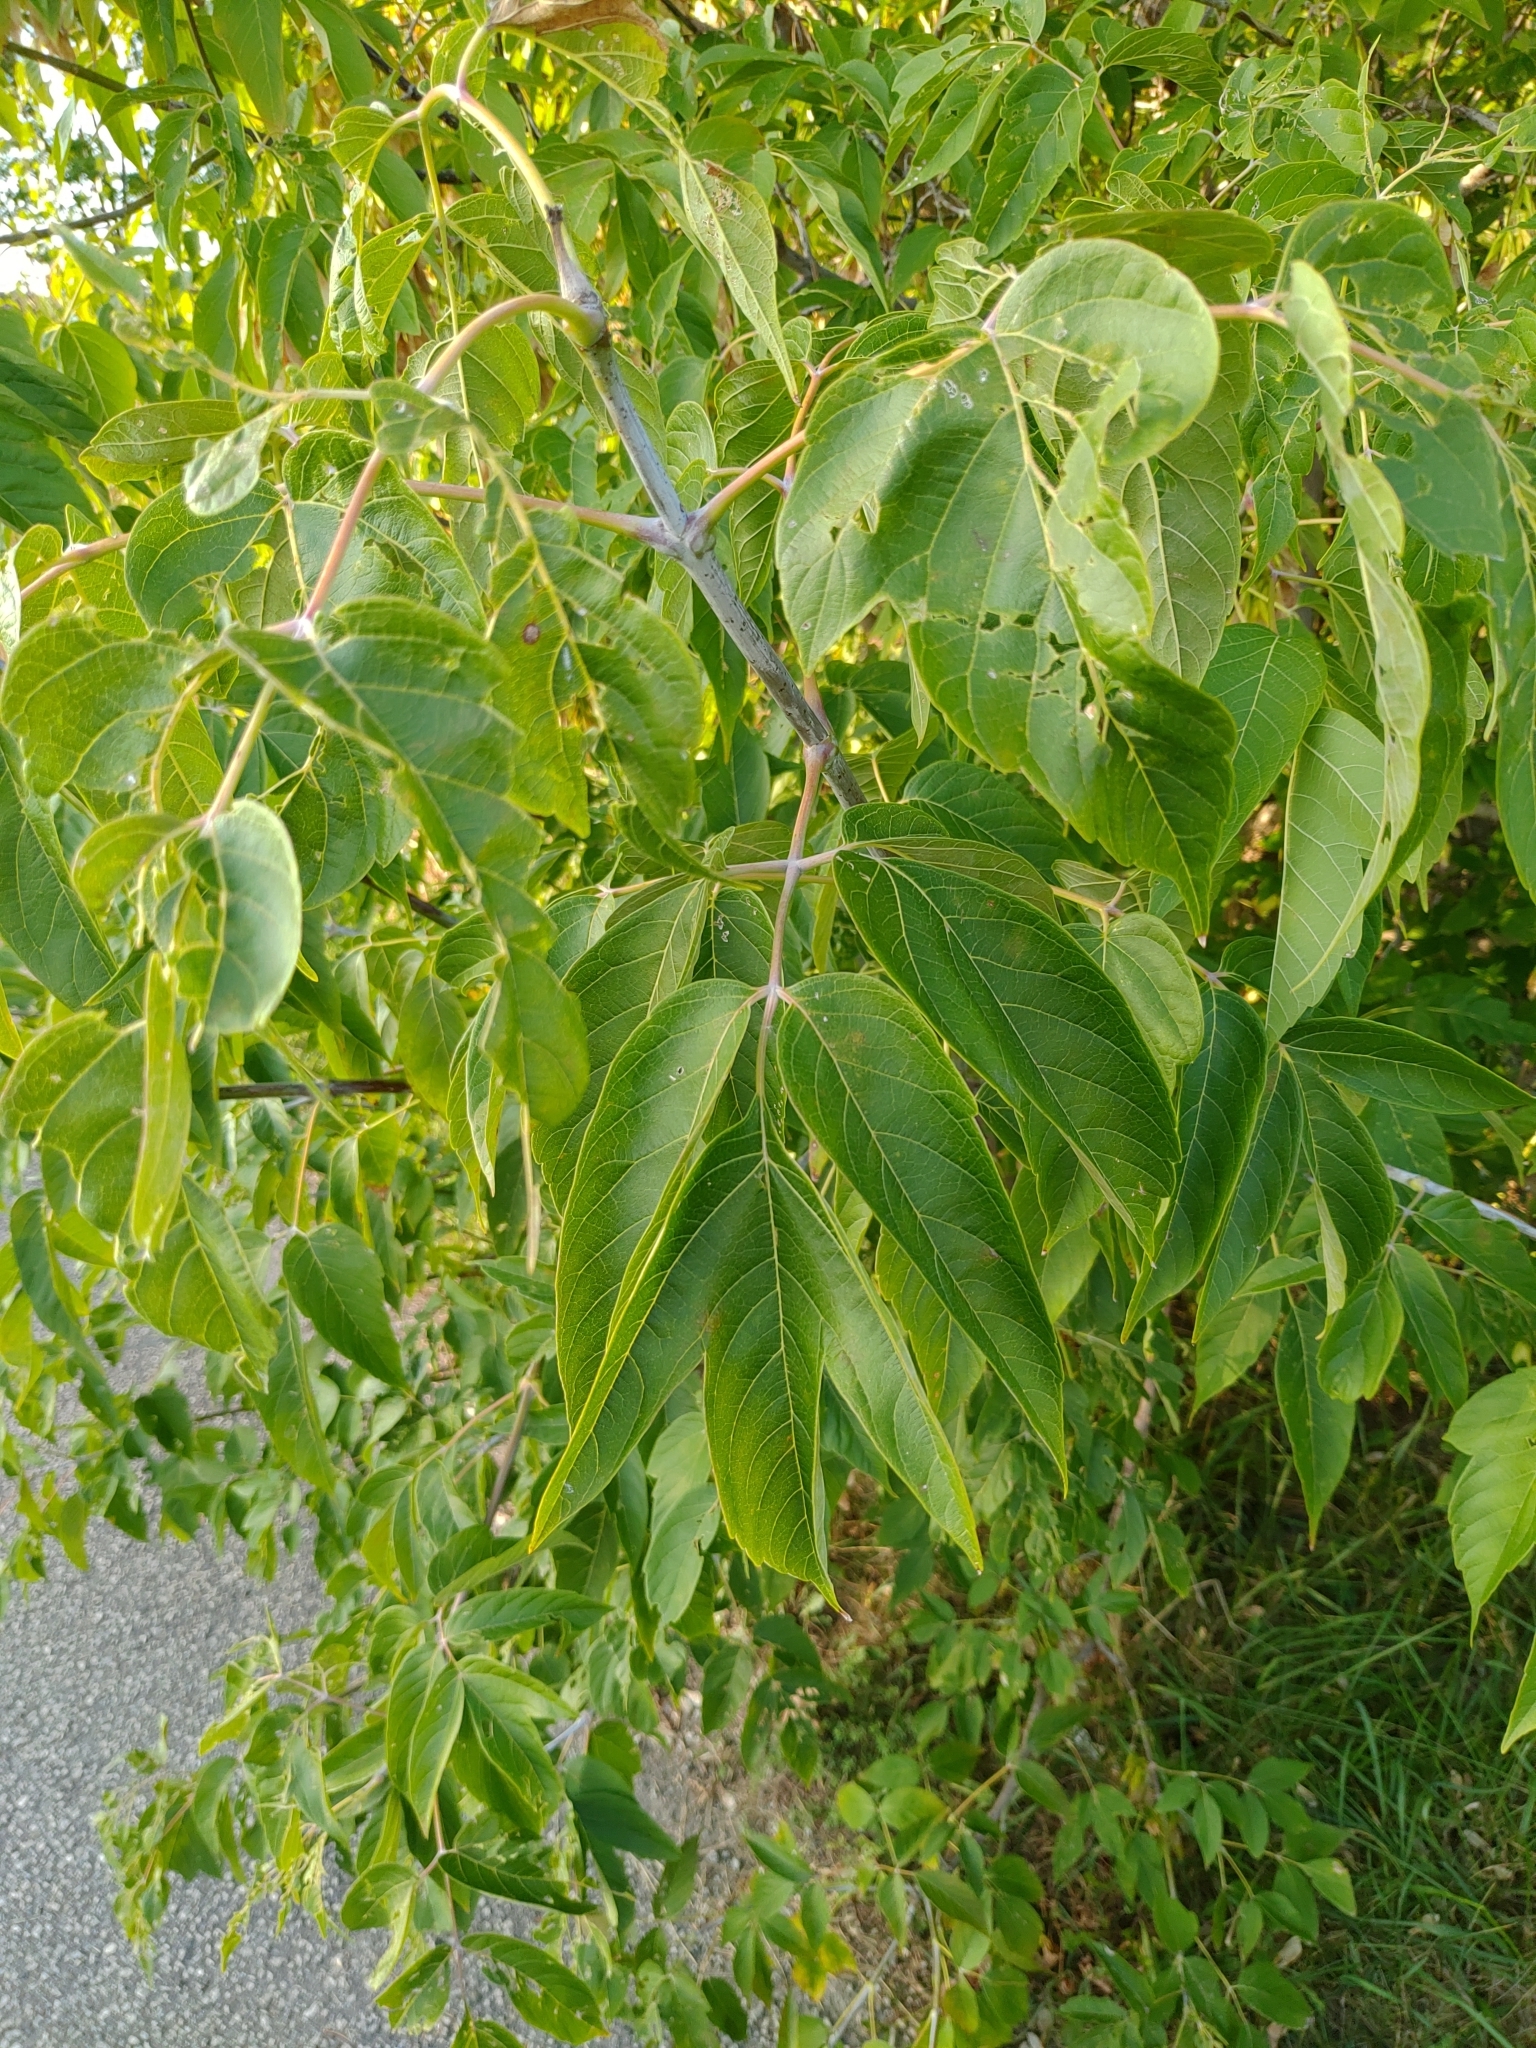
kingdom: Plantae
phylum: Tracheophyta
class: Magnoliopsida
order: Sapindales
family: Sapindaceae
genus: Acer
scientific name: Acer negundo
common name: Ashleaf maple
